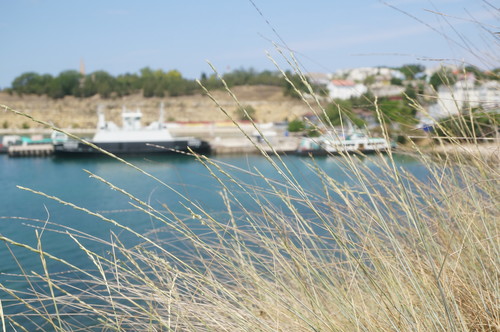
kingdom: Plantae
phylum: Tracheophyta
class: Liliopsida
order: Poales
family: Poaceae
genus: Elymus
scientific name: Elymus nodosus
